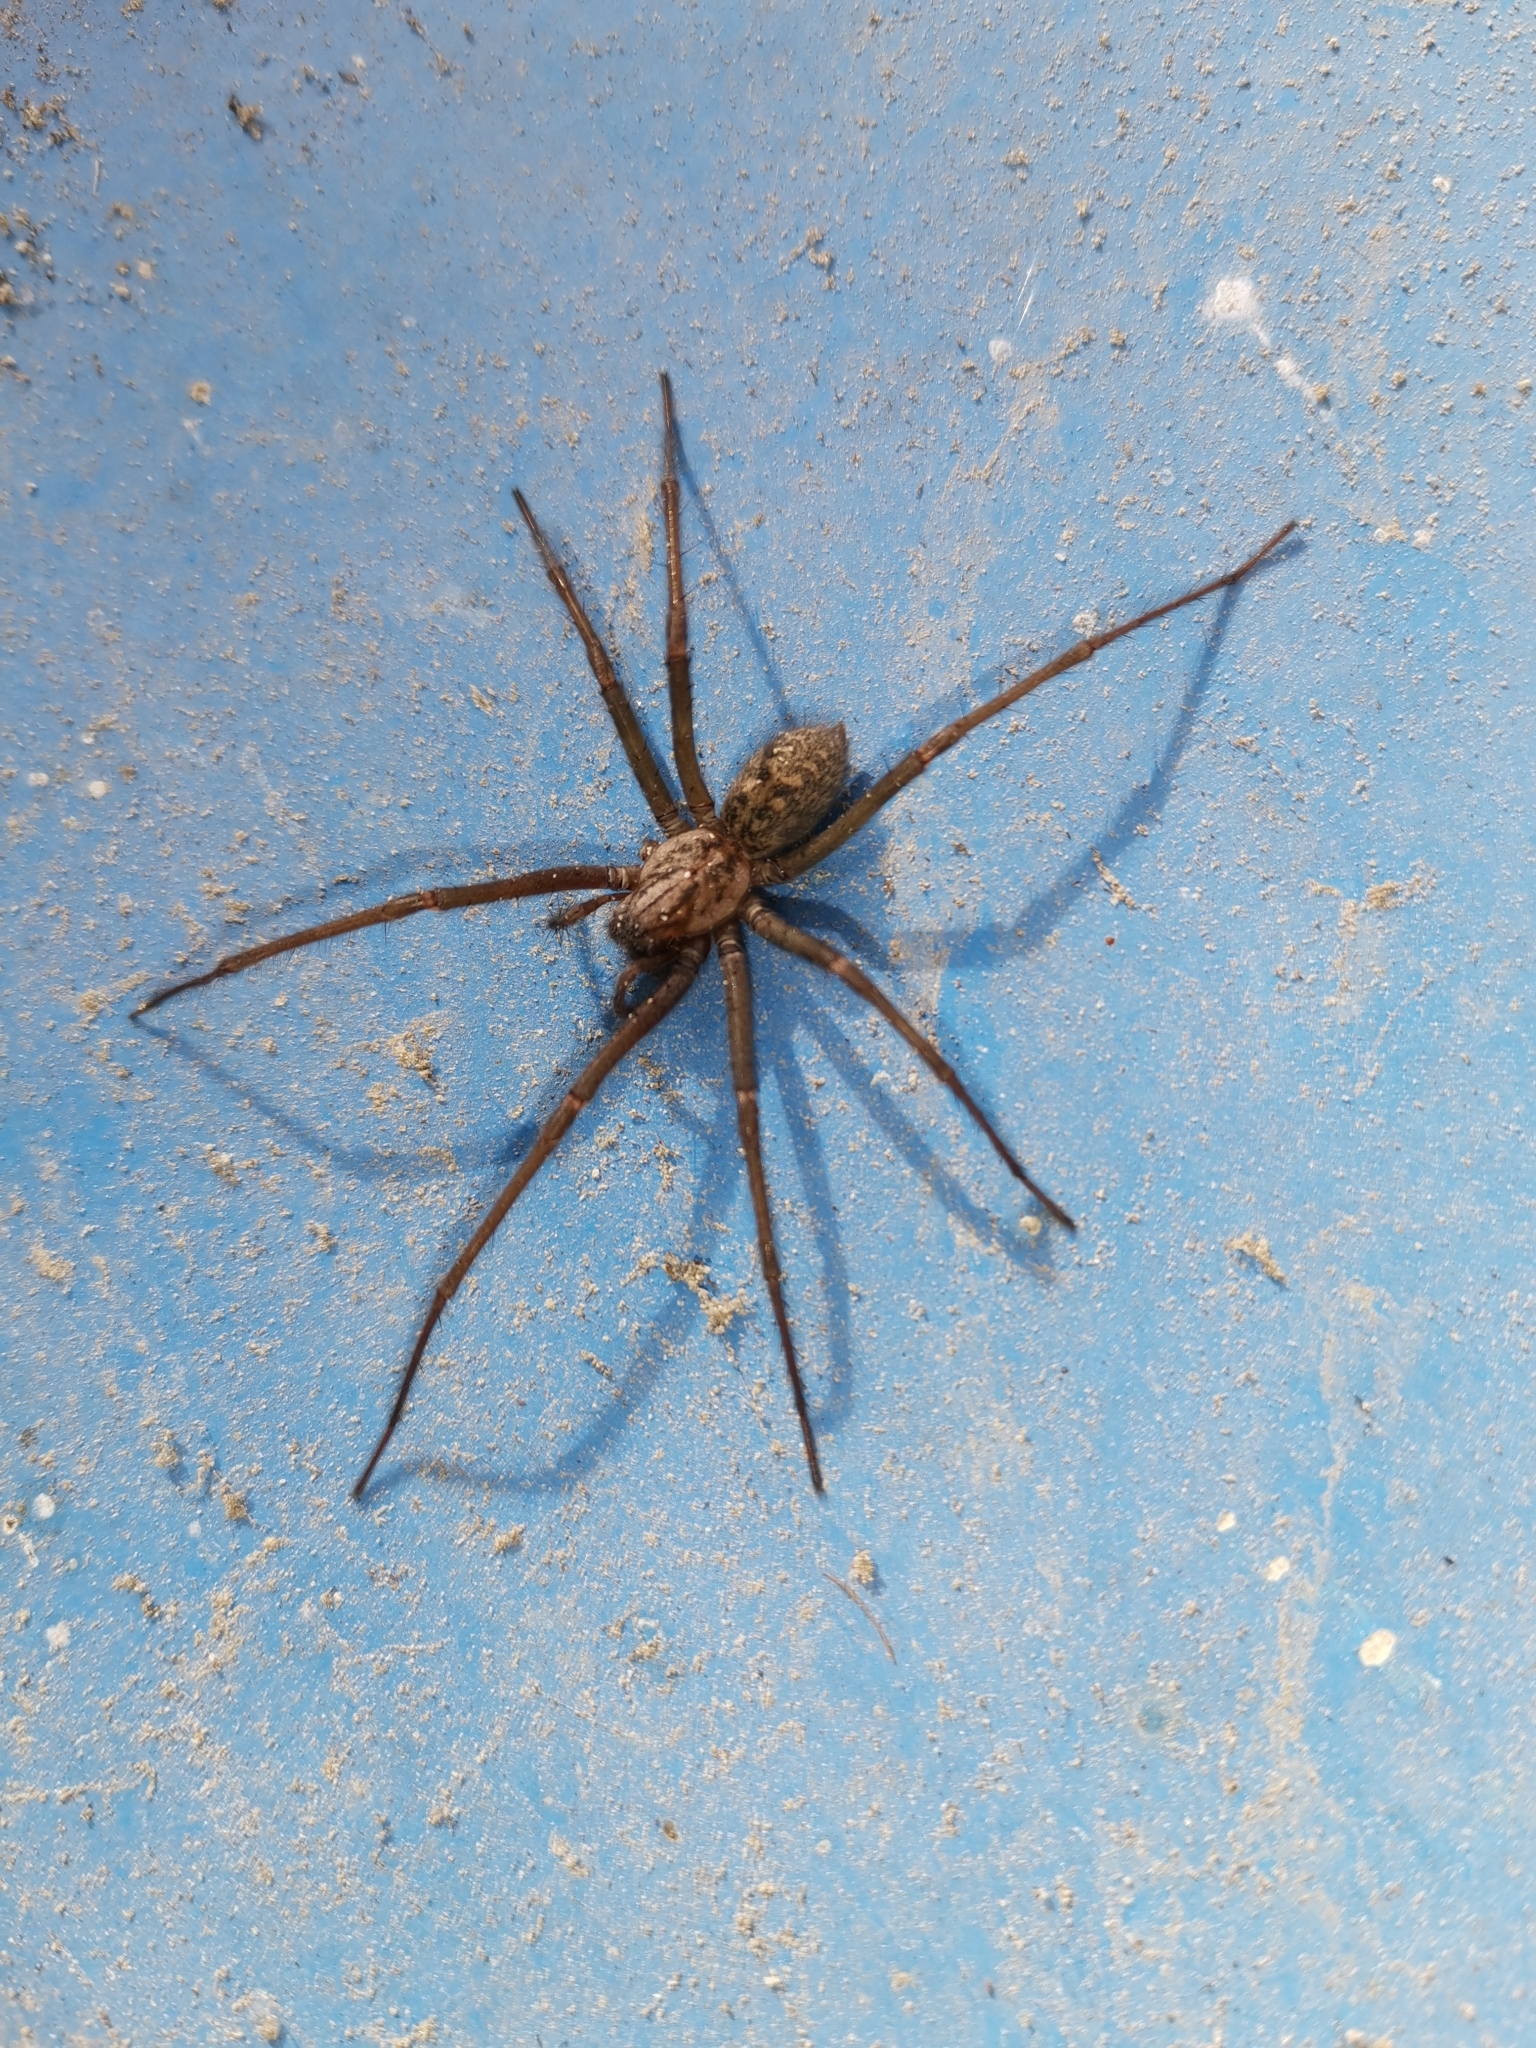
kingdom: Animalia
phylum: Arthropoda
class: Arachnida
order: Araneae
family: Agelenidae
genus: Eratigena
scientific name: Eratigena
